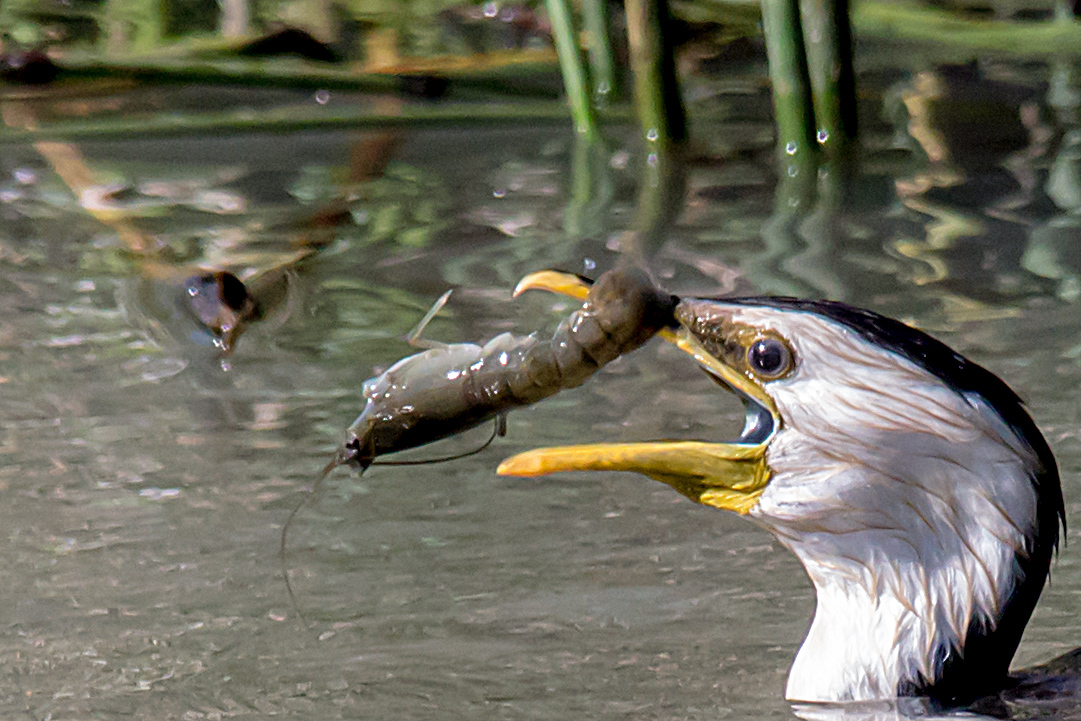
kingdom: Animalia
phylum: Arthropoda
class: Malacostraca
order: Decapoda
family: Parastacidae
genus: Cherax
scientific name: Cherax destructor
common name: Yabby
